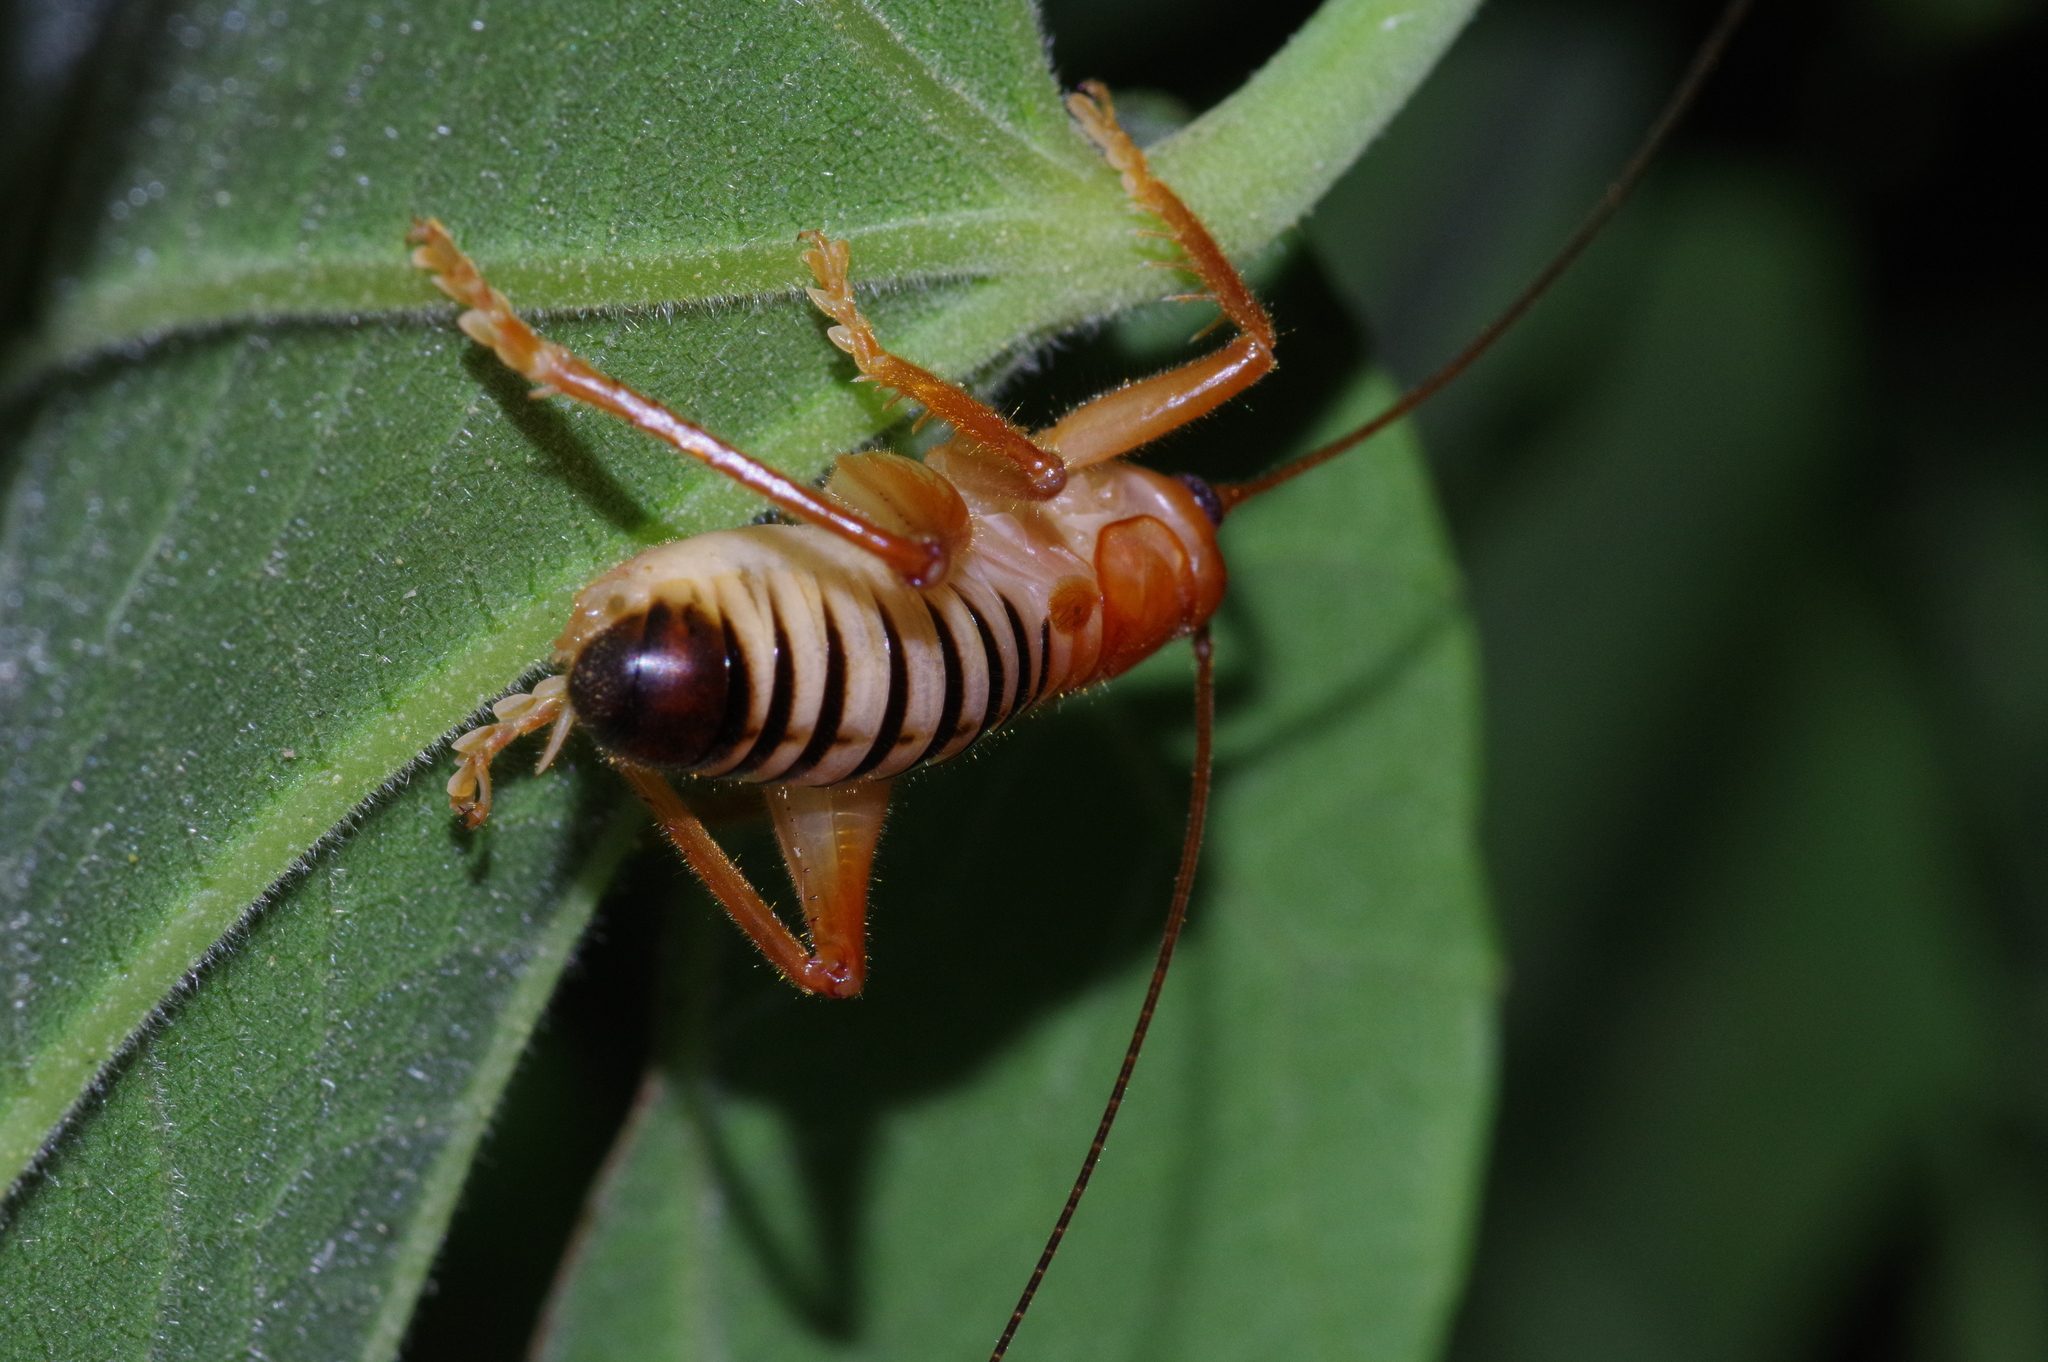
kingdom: Animalia
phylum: Arthropoda
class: Insecta
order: Orthoptera
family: Gryllacrididae
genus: Metriogryllacris
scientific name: Metriogryllacris magna
